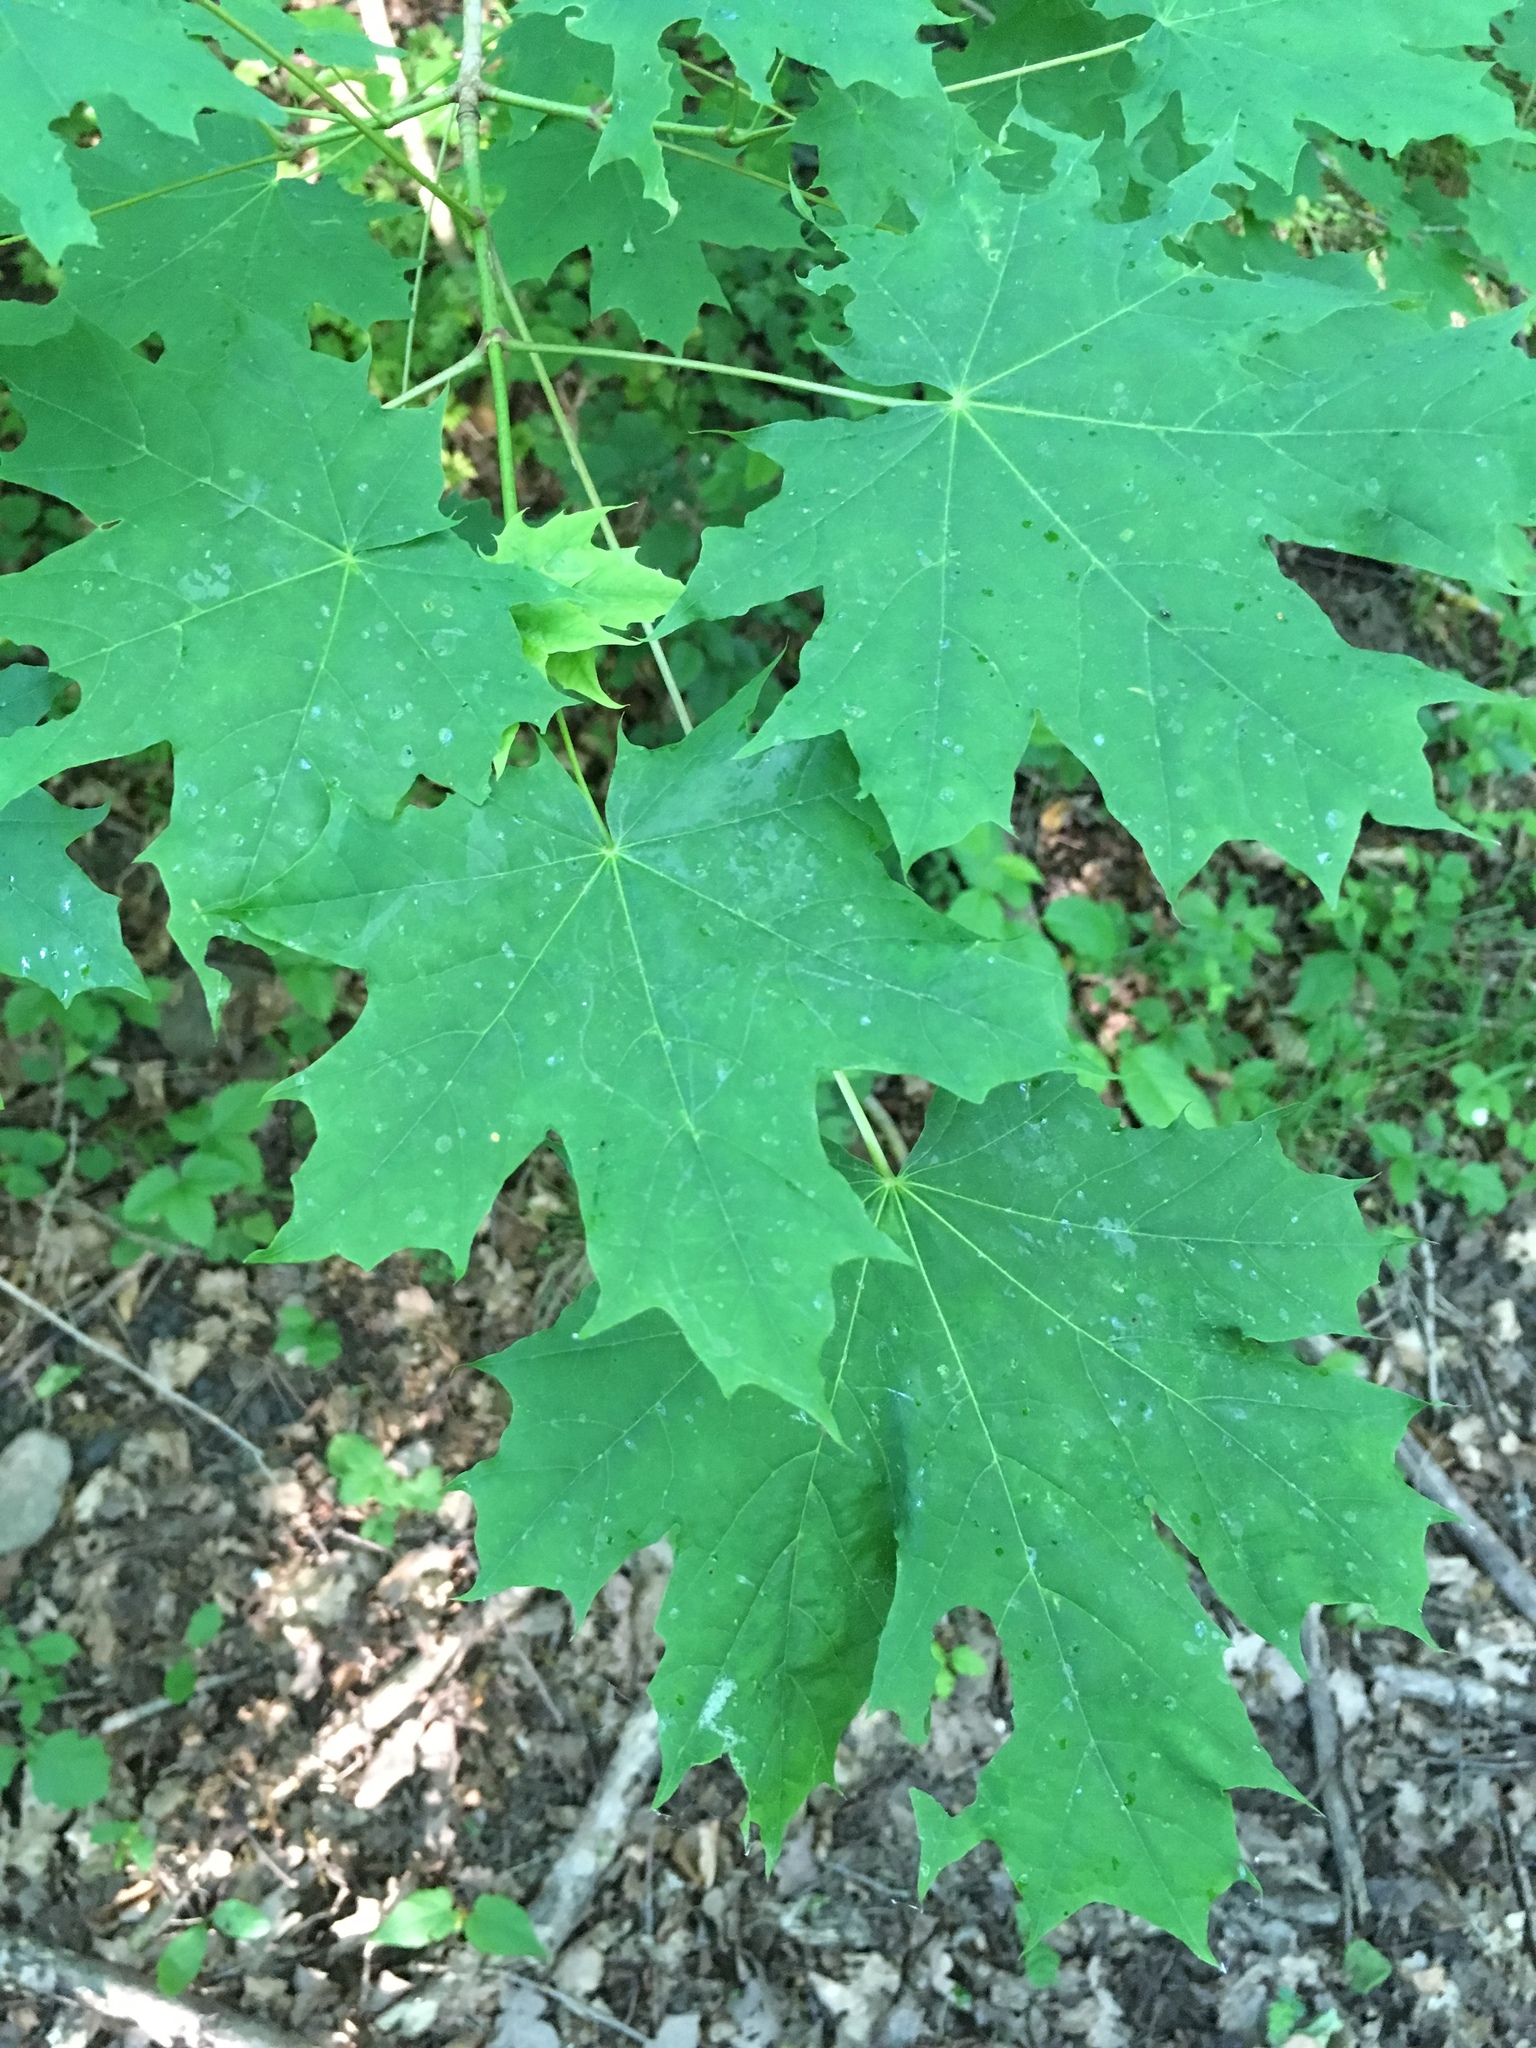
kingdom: Plantae
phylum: Tracheophyta
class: Magnoliopsida
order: Sapindales
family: Sapindaceae
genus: Acer
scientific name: Acer platanoides
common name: Norway maple
